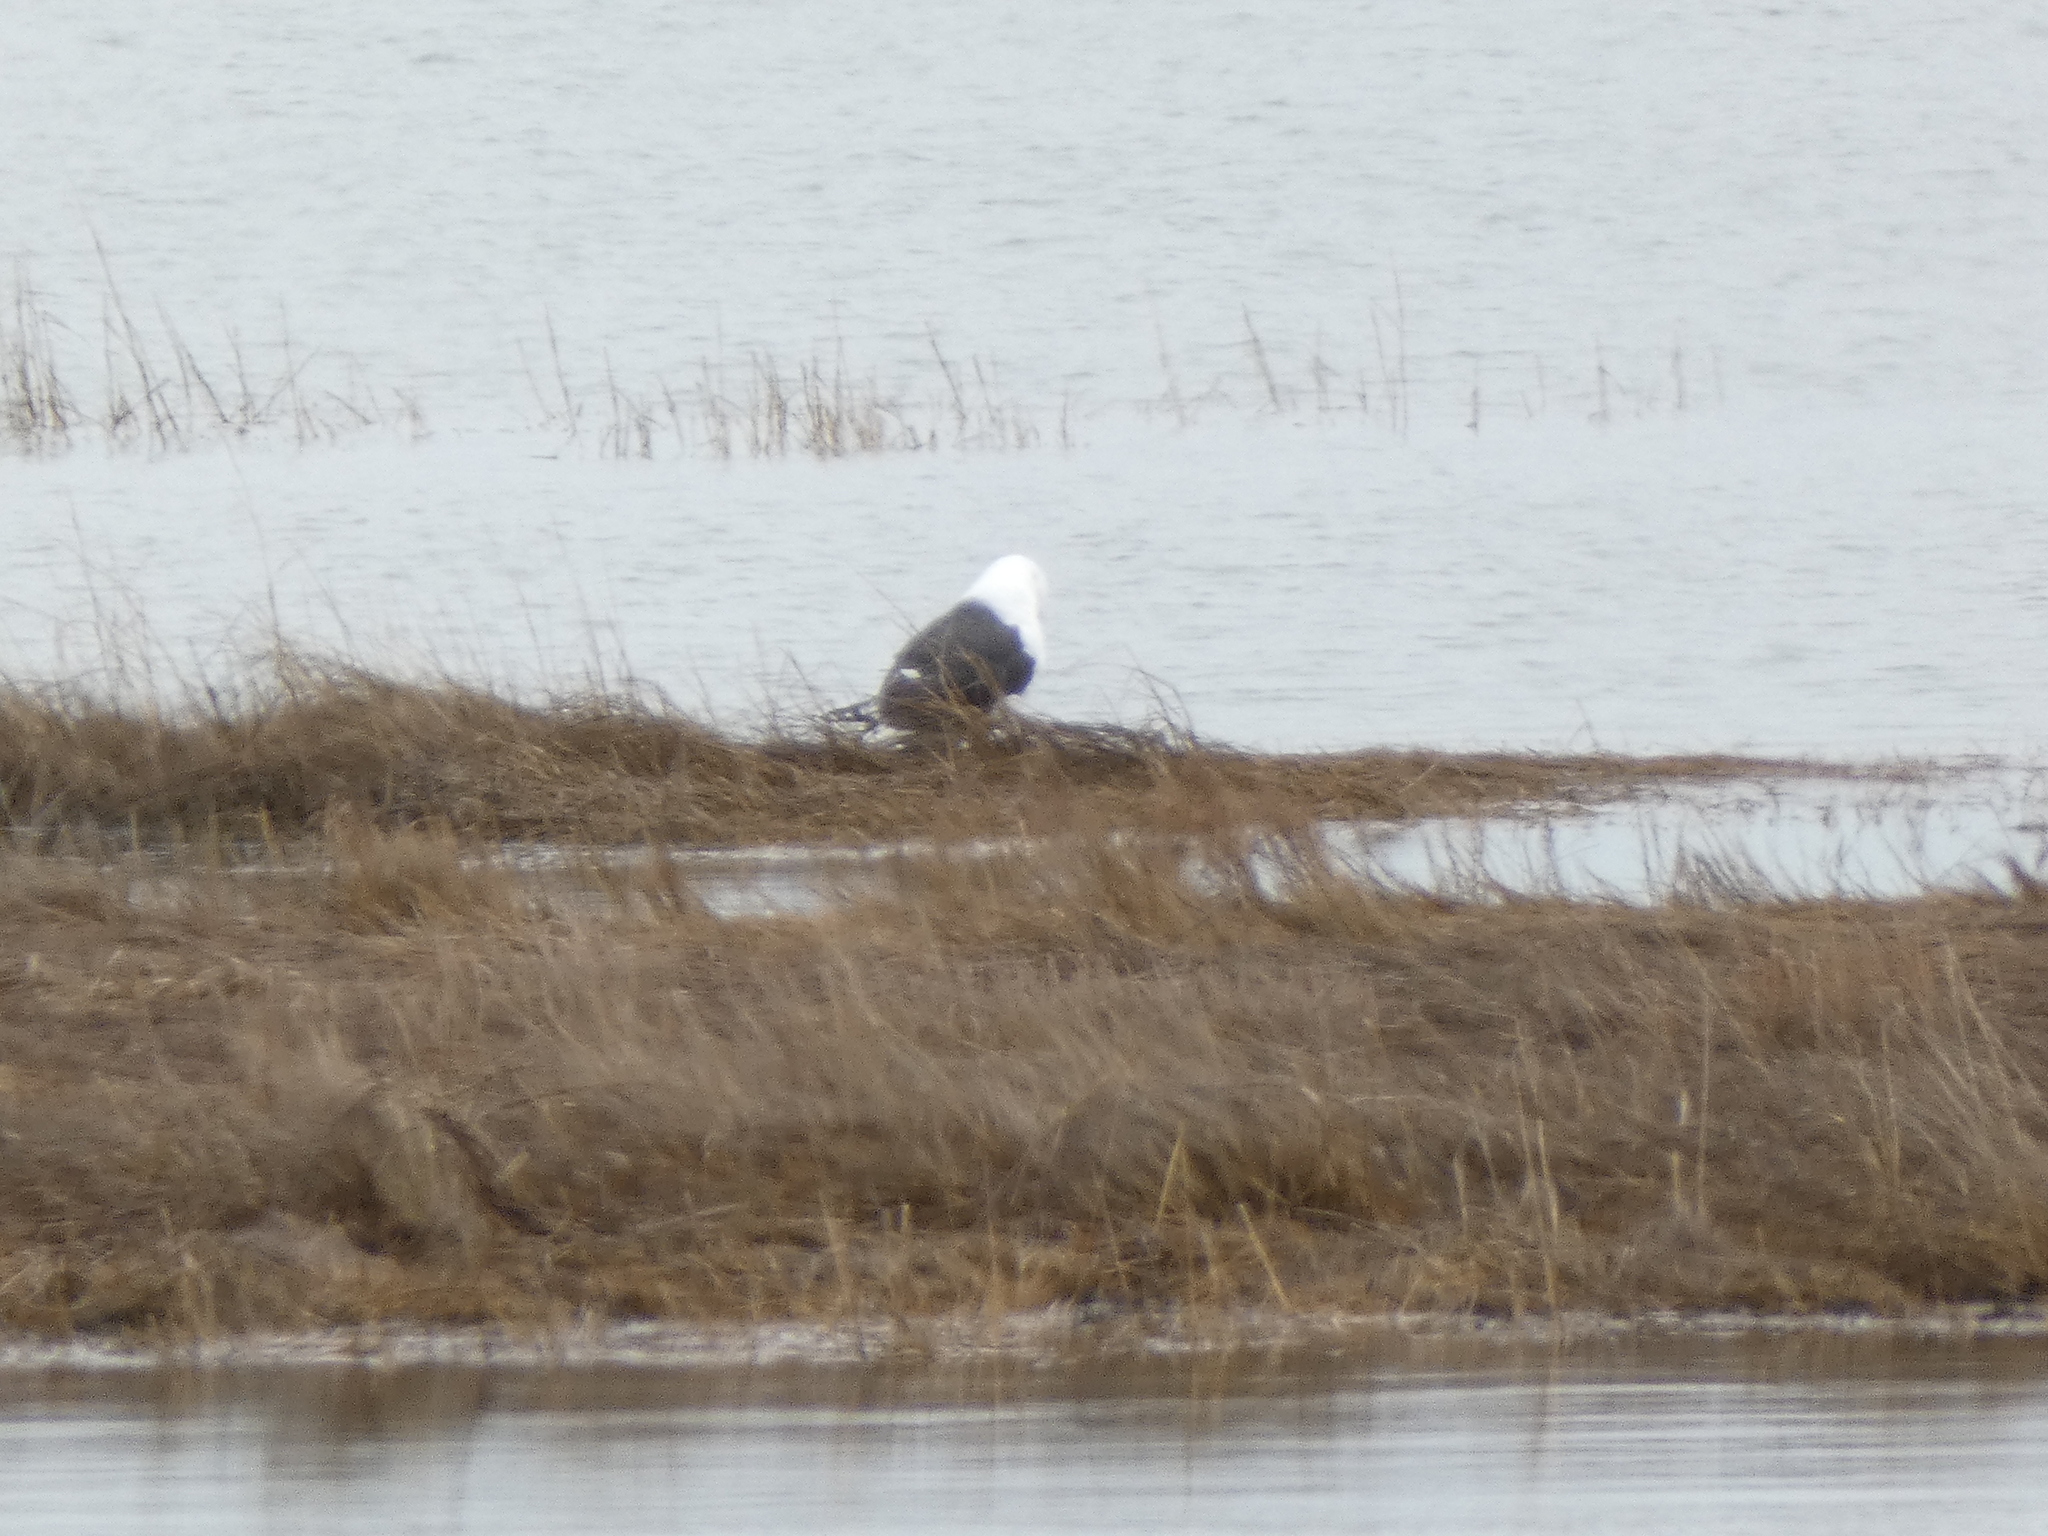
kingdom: Animalia
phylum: Chordata
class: Aves
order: Charadriiformes
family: Laridae
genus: Larus
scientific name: Larus marinus
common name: Great black-backed gull
